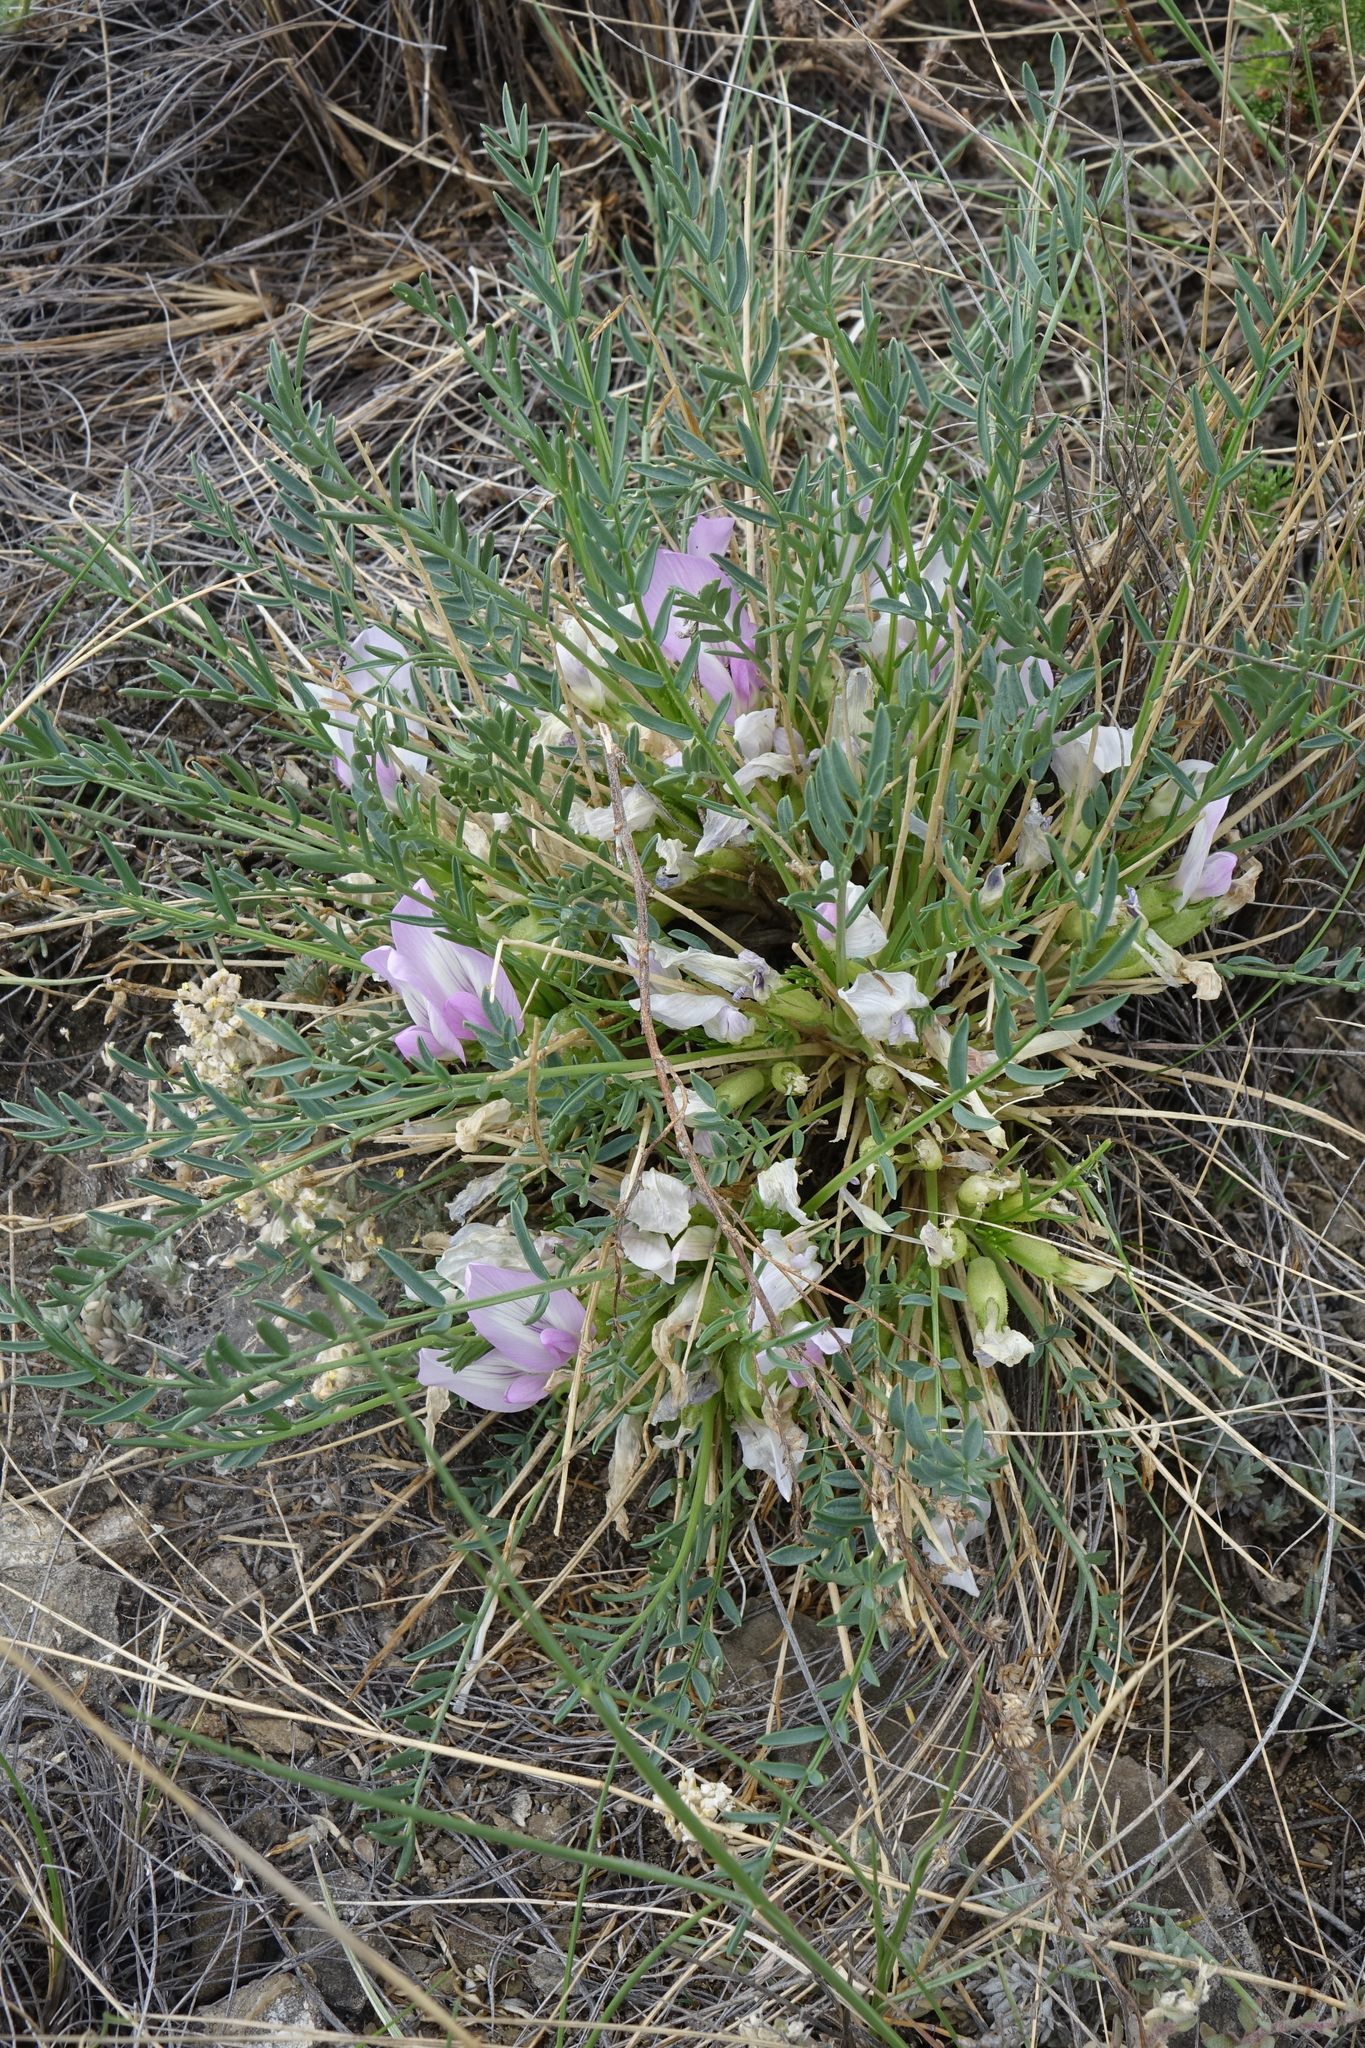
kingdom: Plantae
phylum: Tracheophyta
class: Magnoliopsida
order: Fabales
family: Fabaceae
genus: Oxytropis
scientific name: Oxytropis squammulosa
